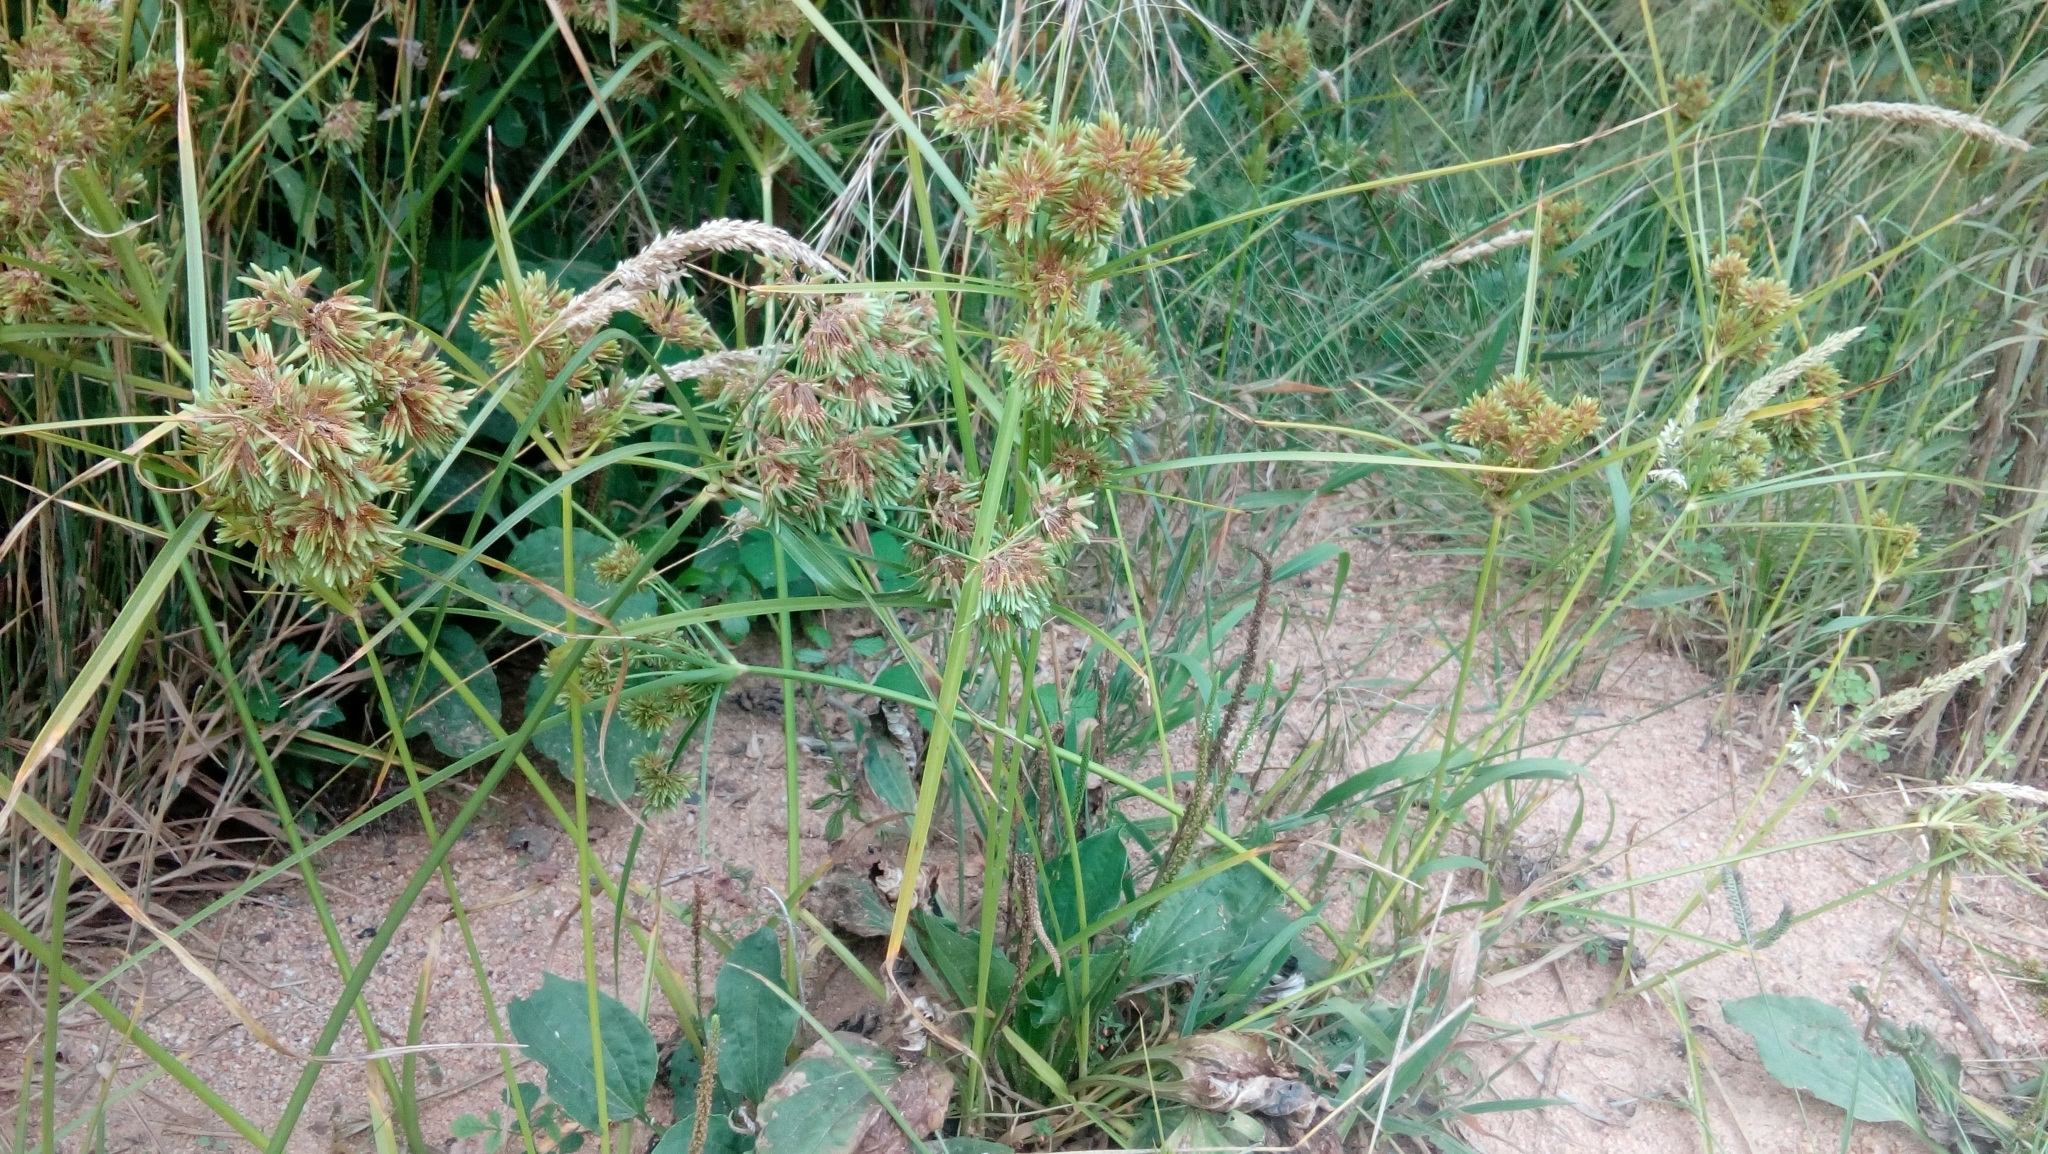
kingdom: Plantae
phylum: Tracheophyta
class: Liliopsida
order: Poales
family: Cyperaceae
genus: Cyperus
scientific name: Cyperus eragrostis
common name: Tall flatsedge
